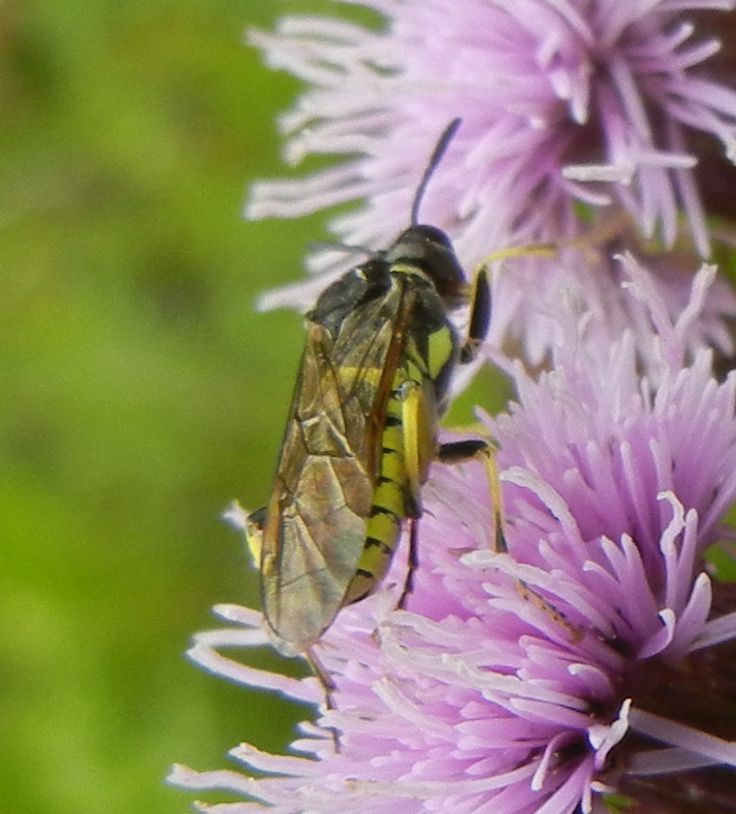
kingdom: Animalia
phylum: Arthropoda
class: Insecta
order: Hymenoptera
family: Tenthredinidae
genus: Tenthredo
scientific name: Tenthredo notha
